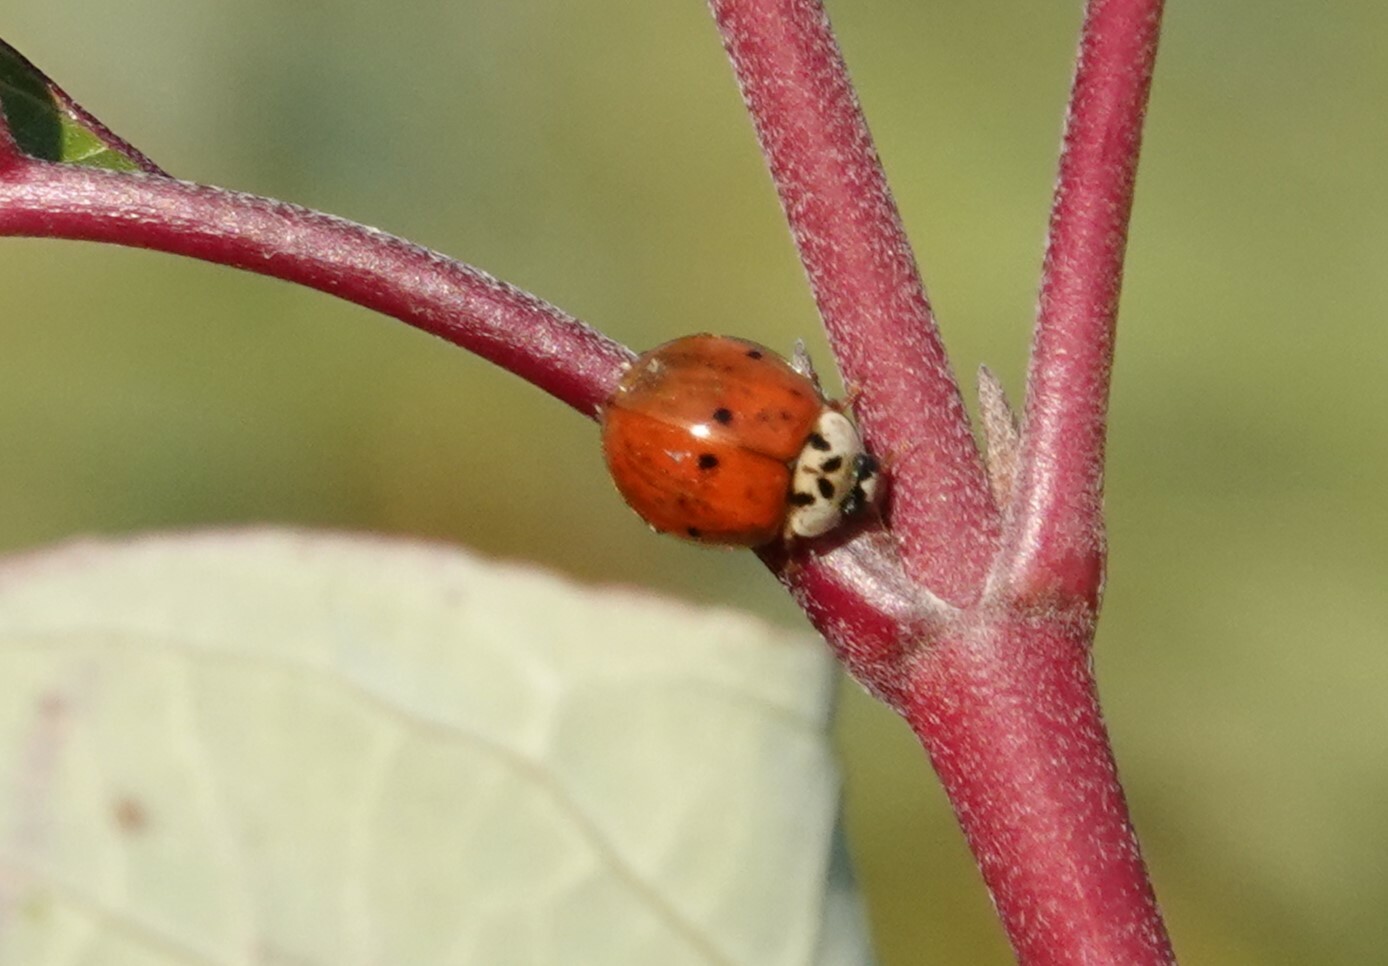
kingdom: Animalia
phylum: Arthropoda
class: Insecta
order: Coleoptera
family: Coccinellidae
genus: Harmonia
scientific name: Harmonia axyridis
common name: Harlequin ladybird
